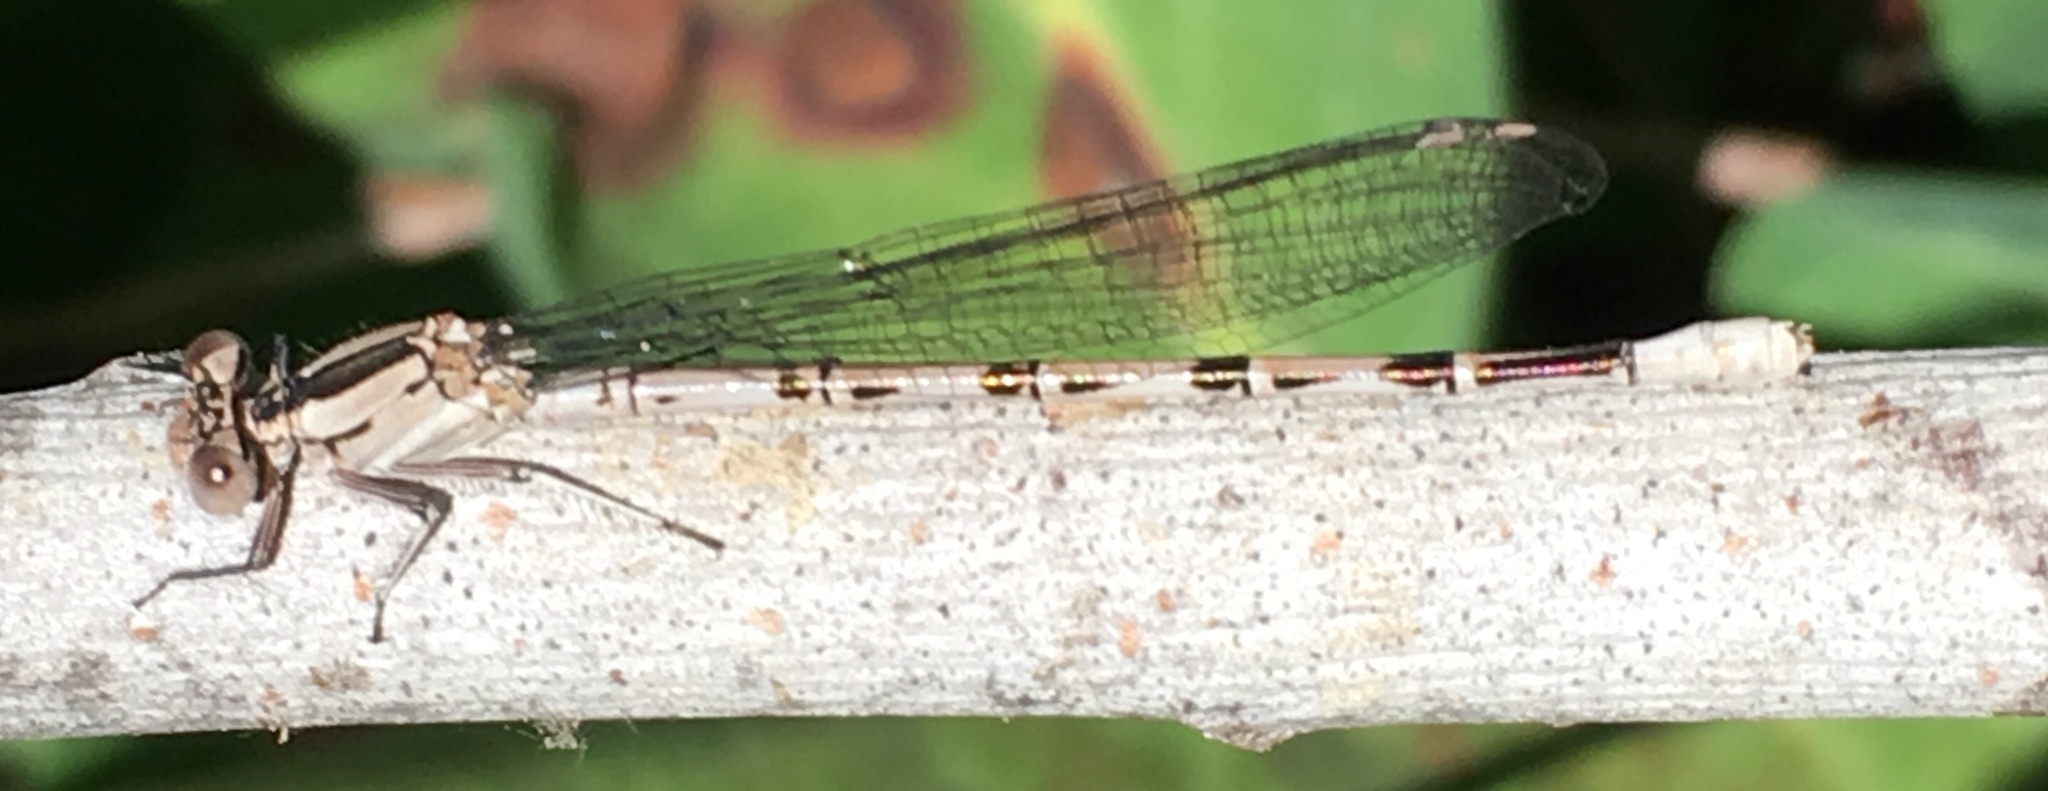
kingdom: Animalia
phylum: Arthropoda
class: Insecta
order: Odonata
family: Coenagrionidae
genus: Argia
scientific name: Argia vivida
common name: Vivid dancer
